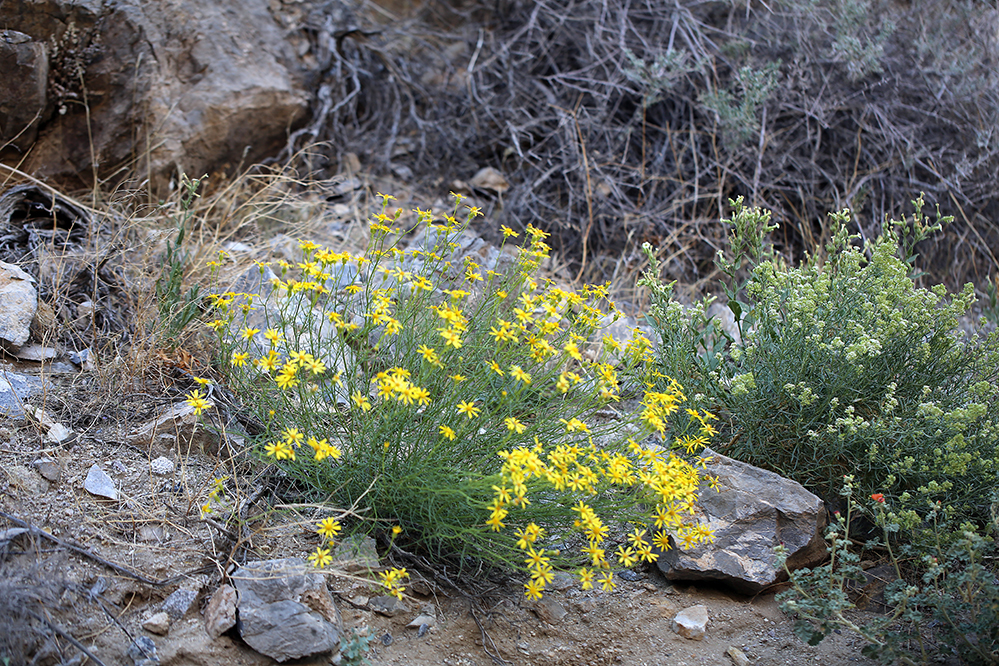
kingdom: Plantae
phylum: Tracheophyta
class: Magnoliopsida
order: Asterales
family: Asteraceae
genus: Senecio
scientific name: Senecio flaccidus
